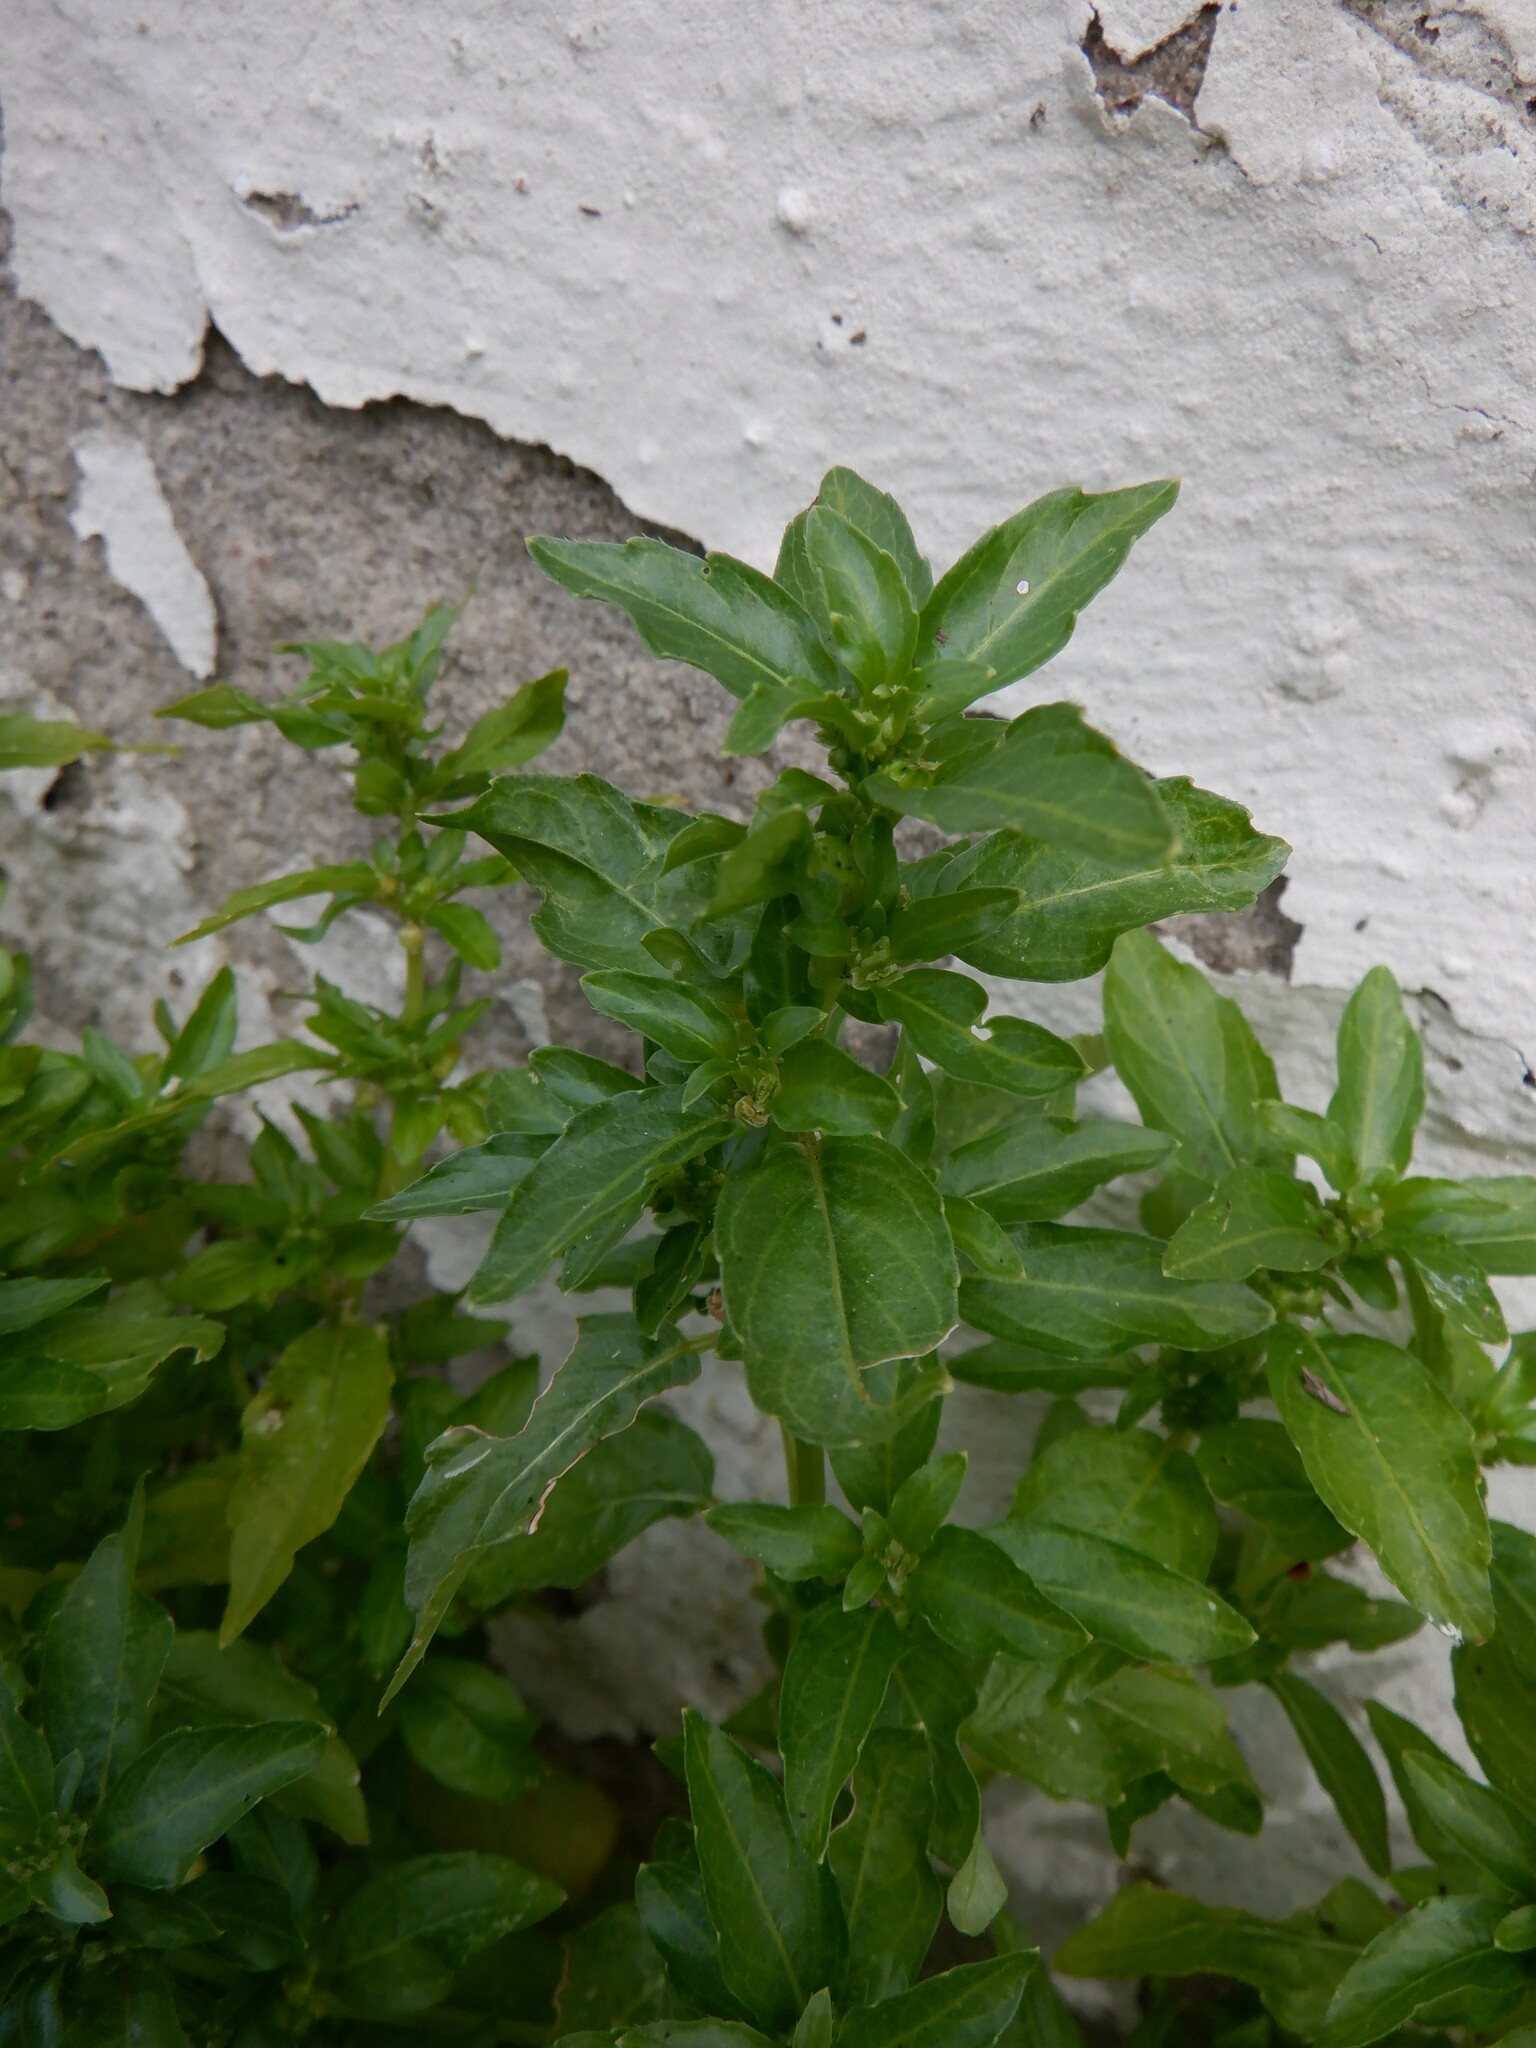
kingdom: Plantae
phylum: Tracheophyta
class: Magnoliopsida
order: Malpighiales
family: Euphorbiaceae
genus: Mercurialis
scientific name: Mercurialis annua
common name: Annual mercury
